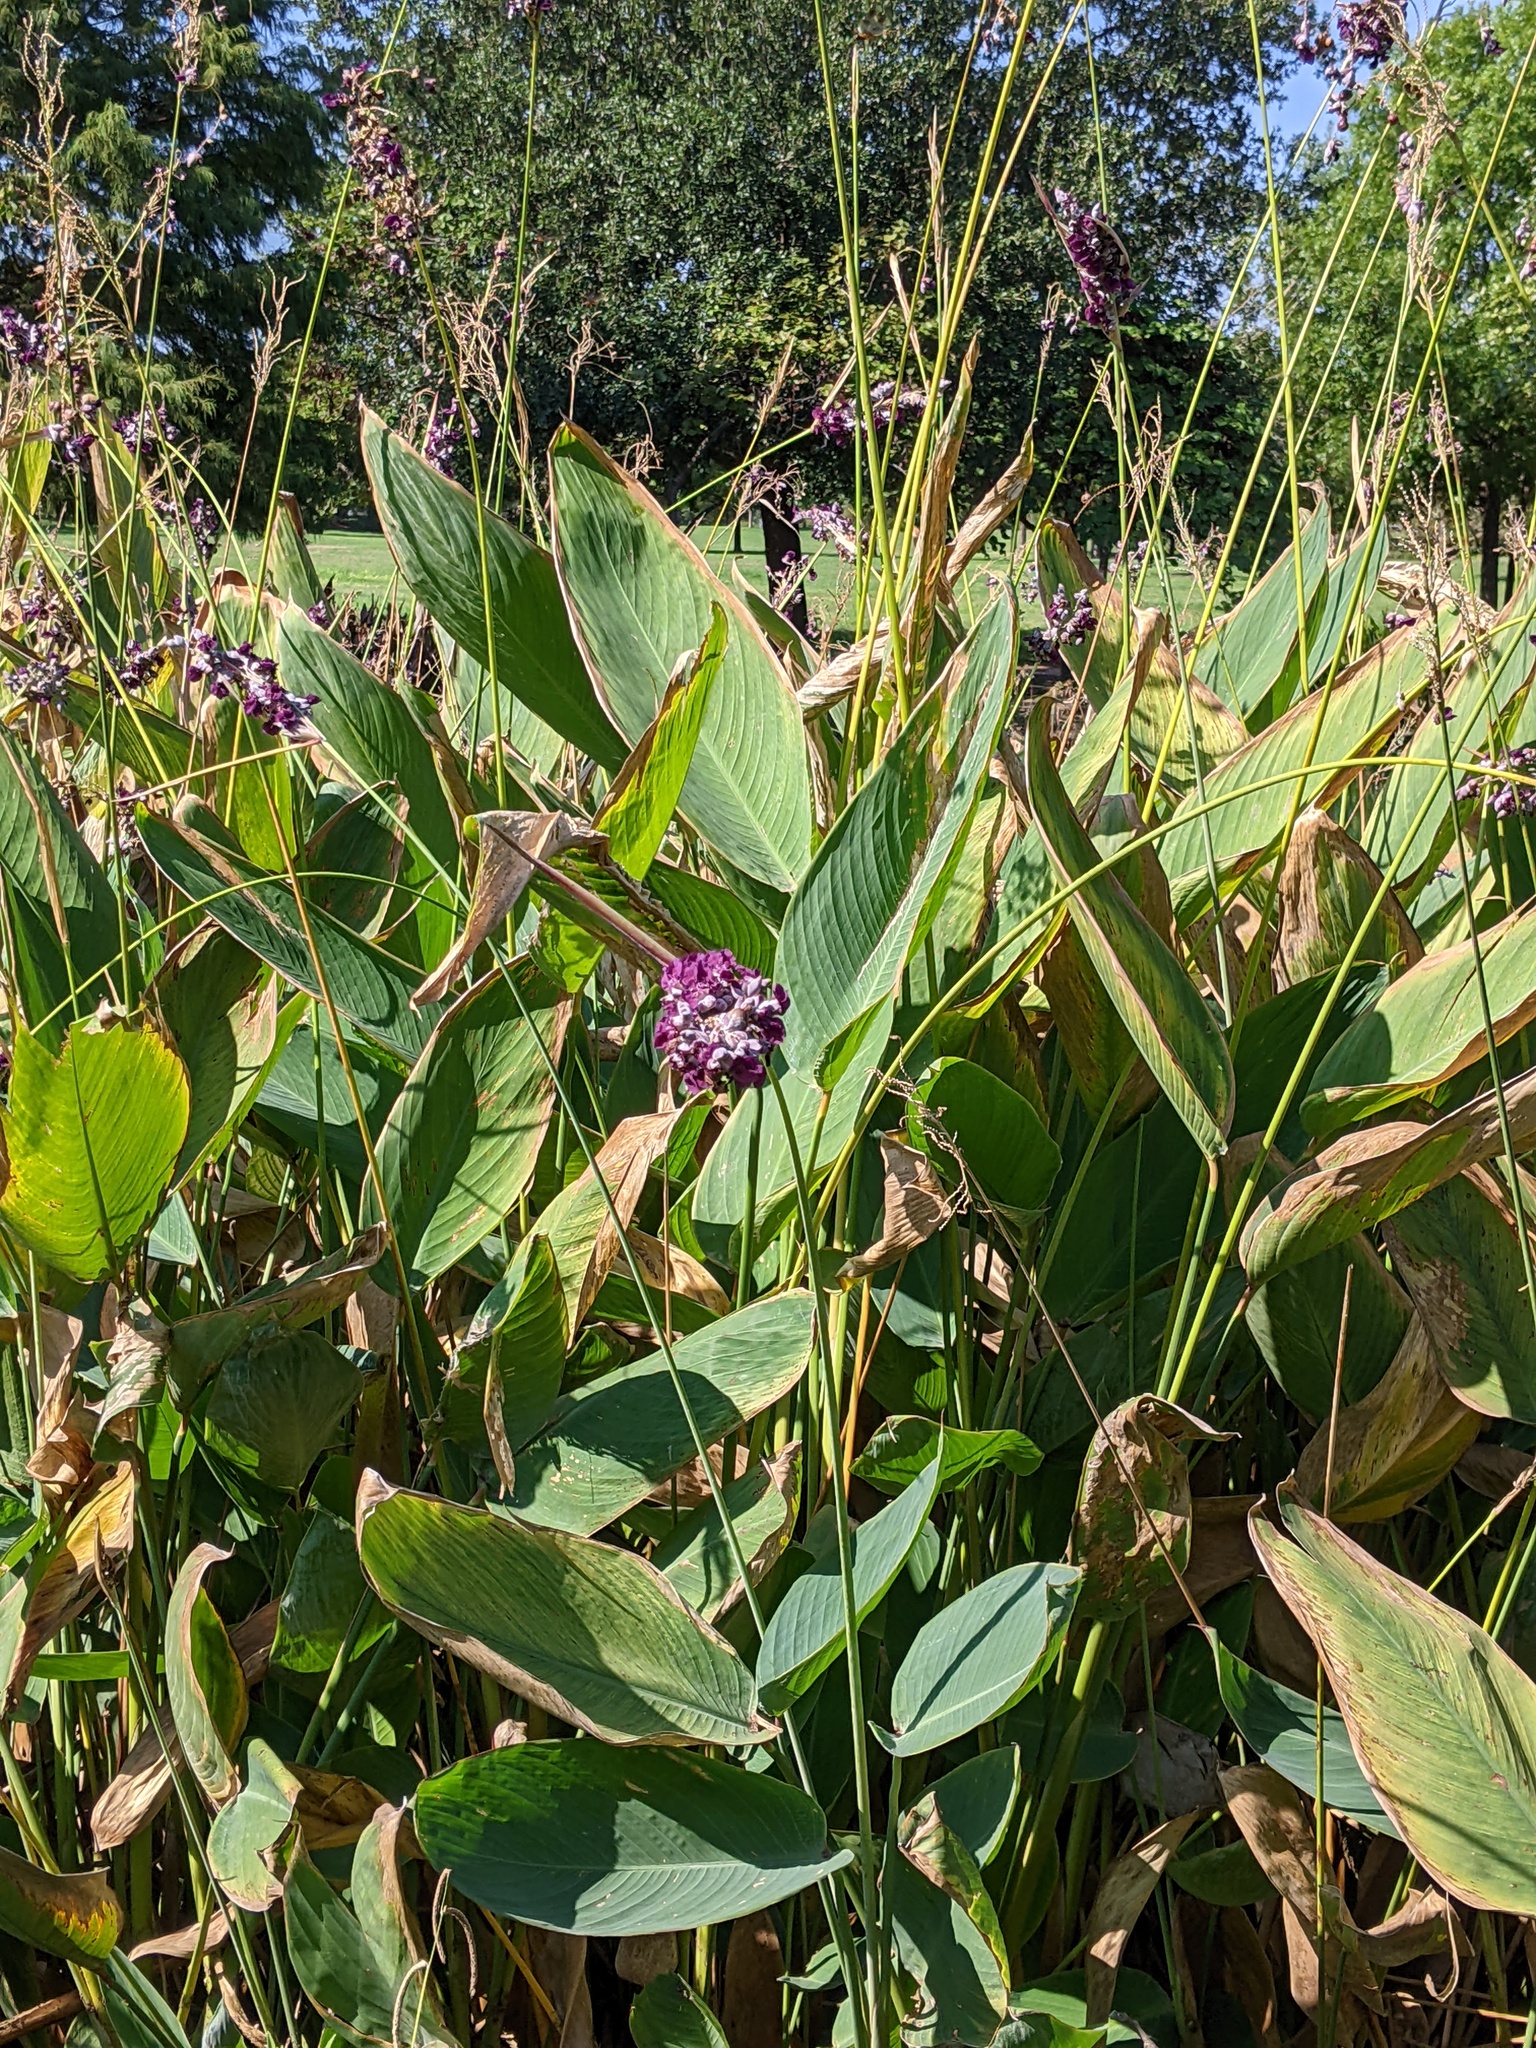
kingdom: Plantae
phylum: Tracheophyta
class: Liliopsida
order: Zingiberales
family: Marantaceae
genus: Thalia
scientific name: Thalia dealbata
